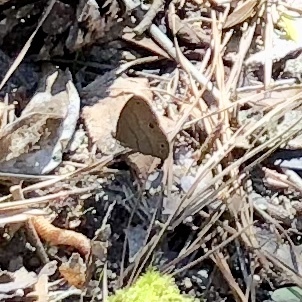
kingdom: Animalia
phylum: Arthropoda
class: Insecta
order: Lepidoptera
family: Nymphalidae
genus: Hermeuptychia
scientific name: Hermeuptychia hermes
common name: Hermes satyr
